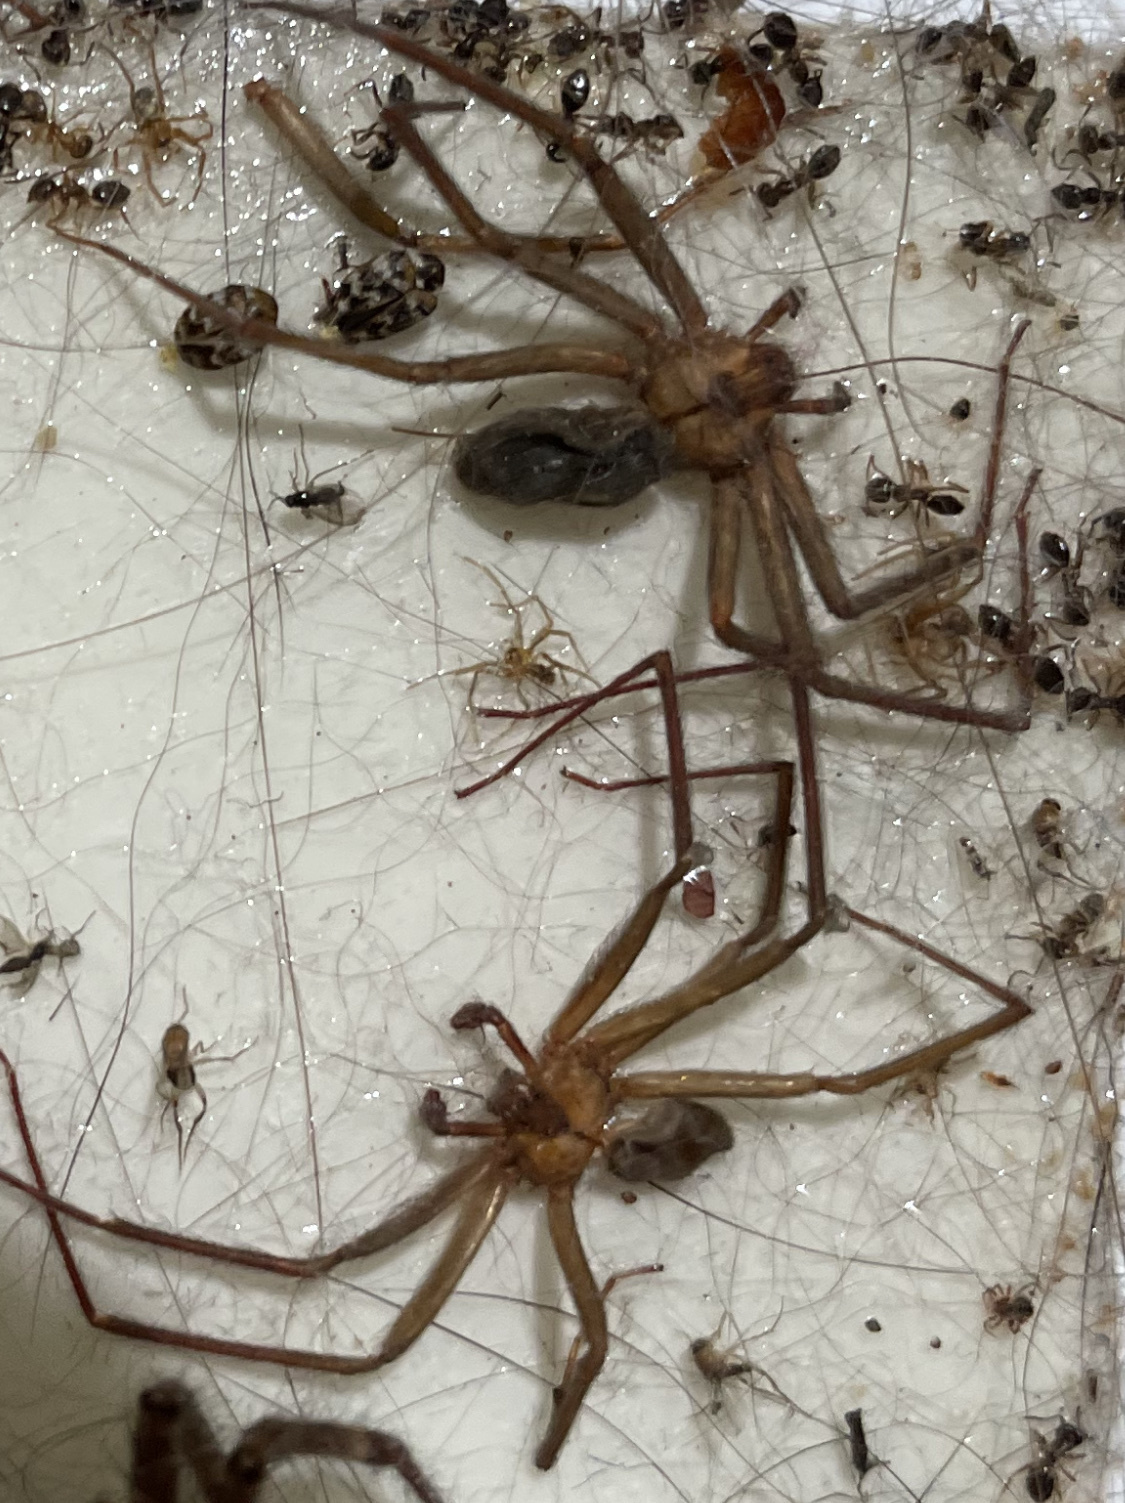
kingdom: Animalia
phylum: Arthropoda
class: Arachnida
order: Araneae
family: Sicariidae
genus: Loxosceles
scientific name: Loxosceles reclusa
